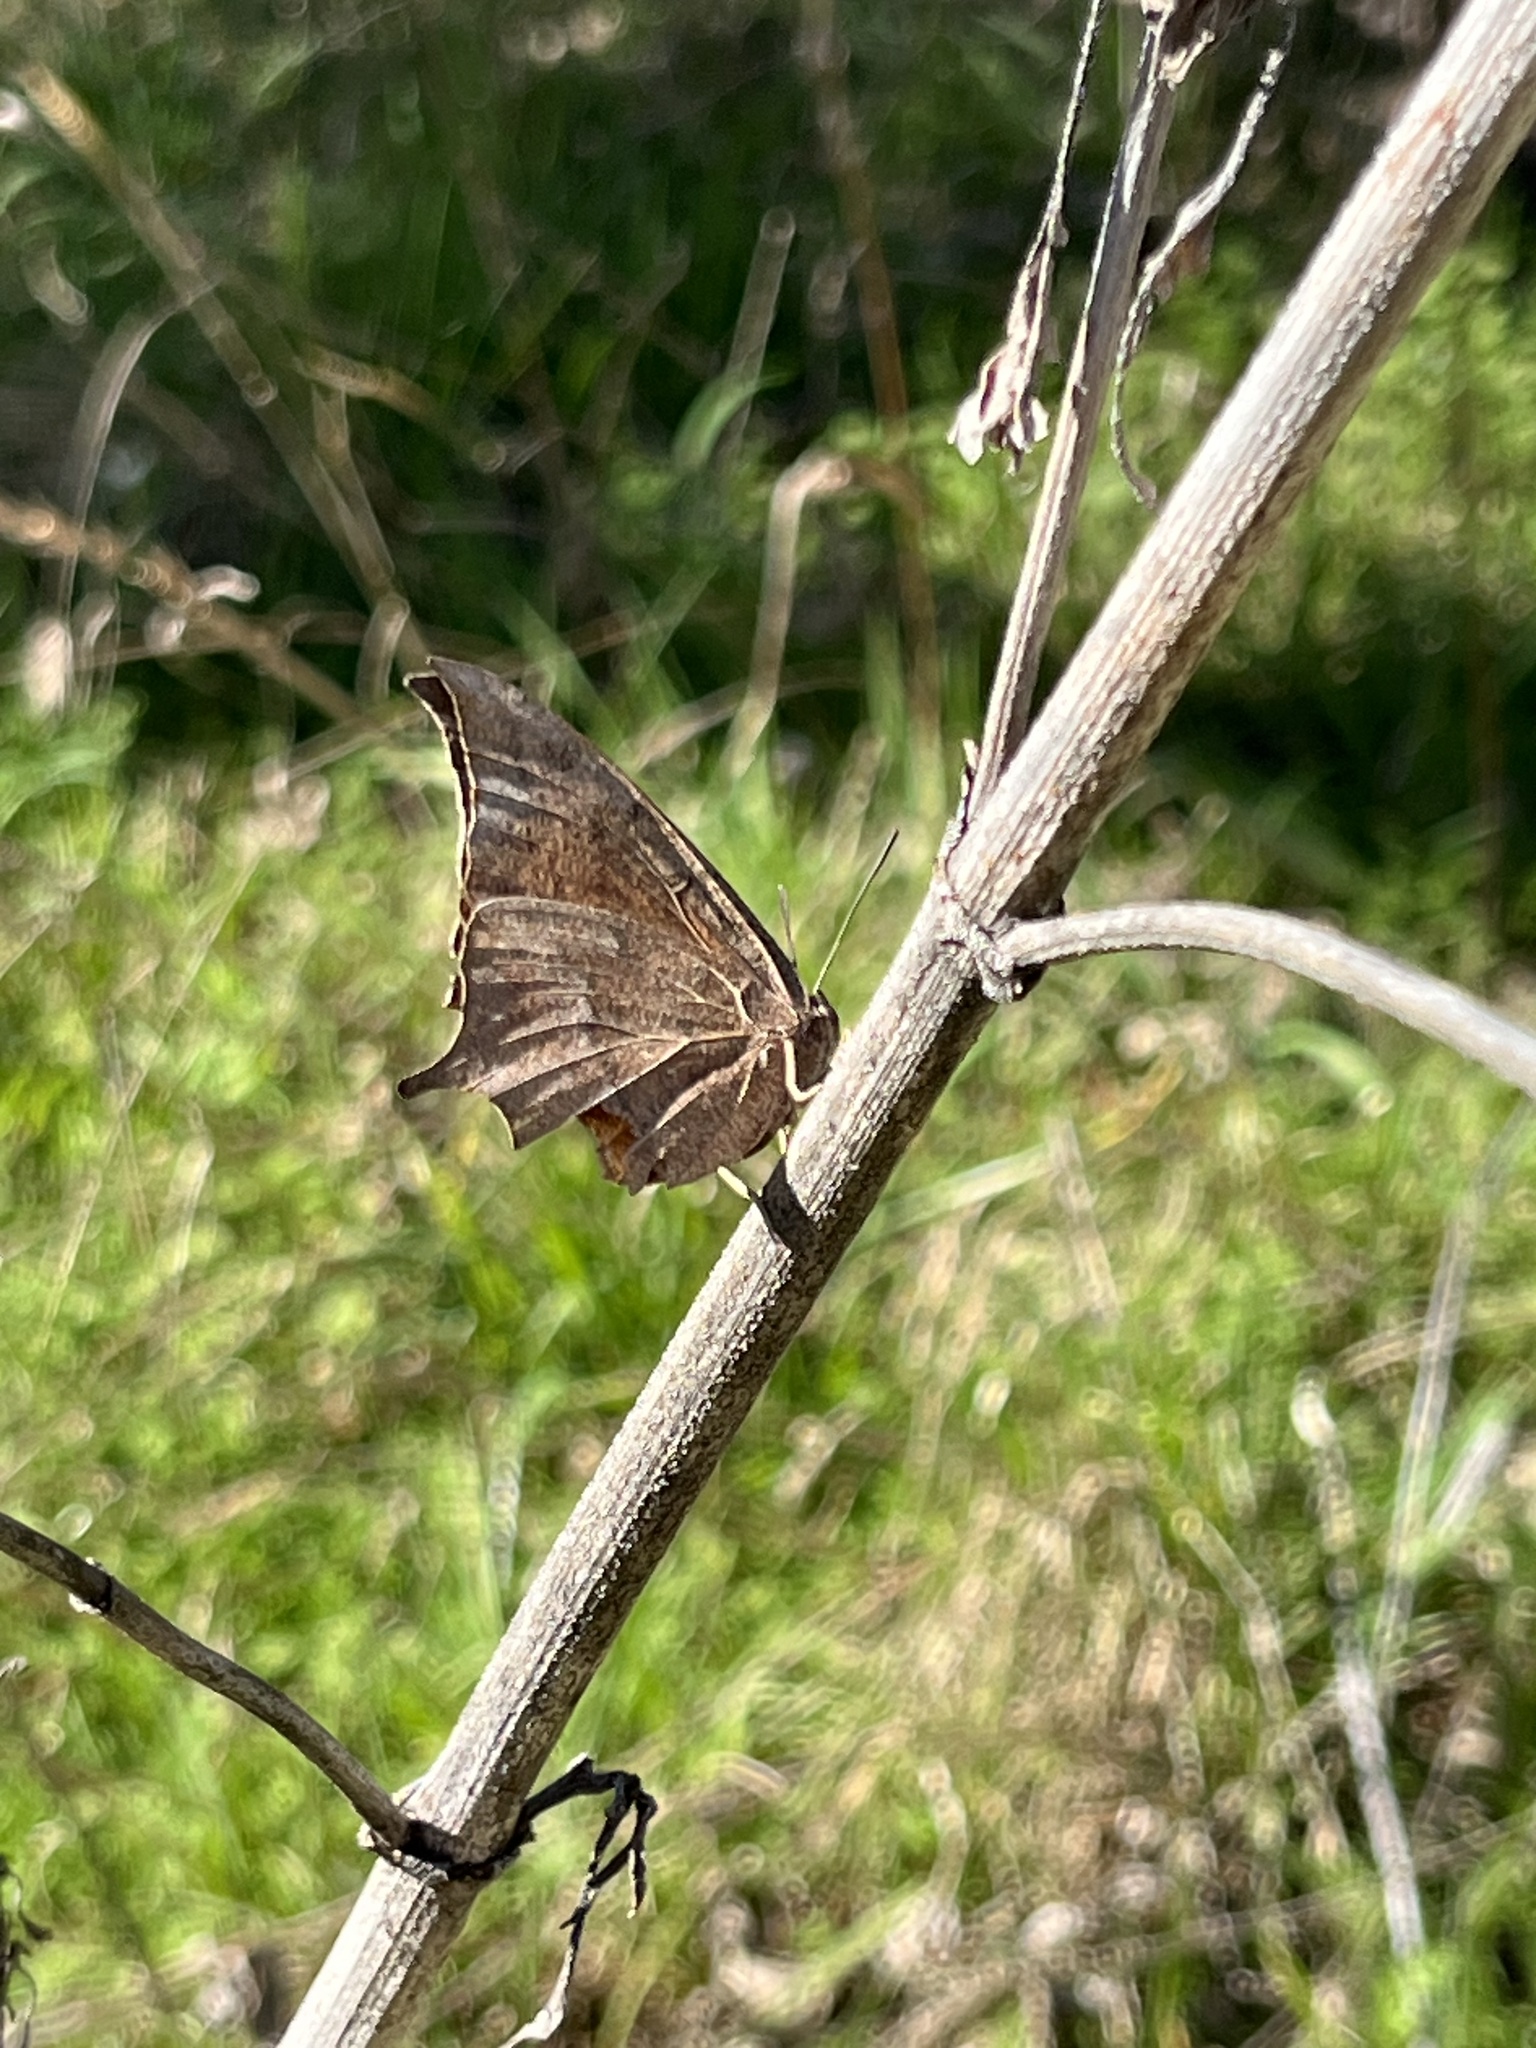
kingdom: Animalia
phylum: Arthropoda
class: Insecta
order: Lepidoptera
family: Nymphalidae
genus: Anaea
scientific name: Anaea andria
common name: Goatweed leafwing
